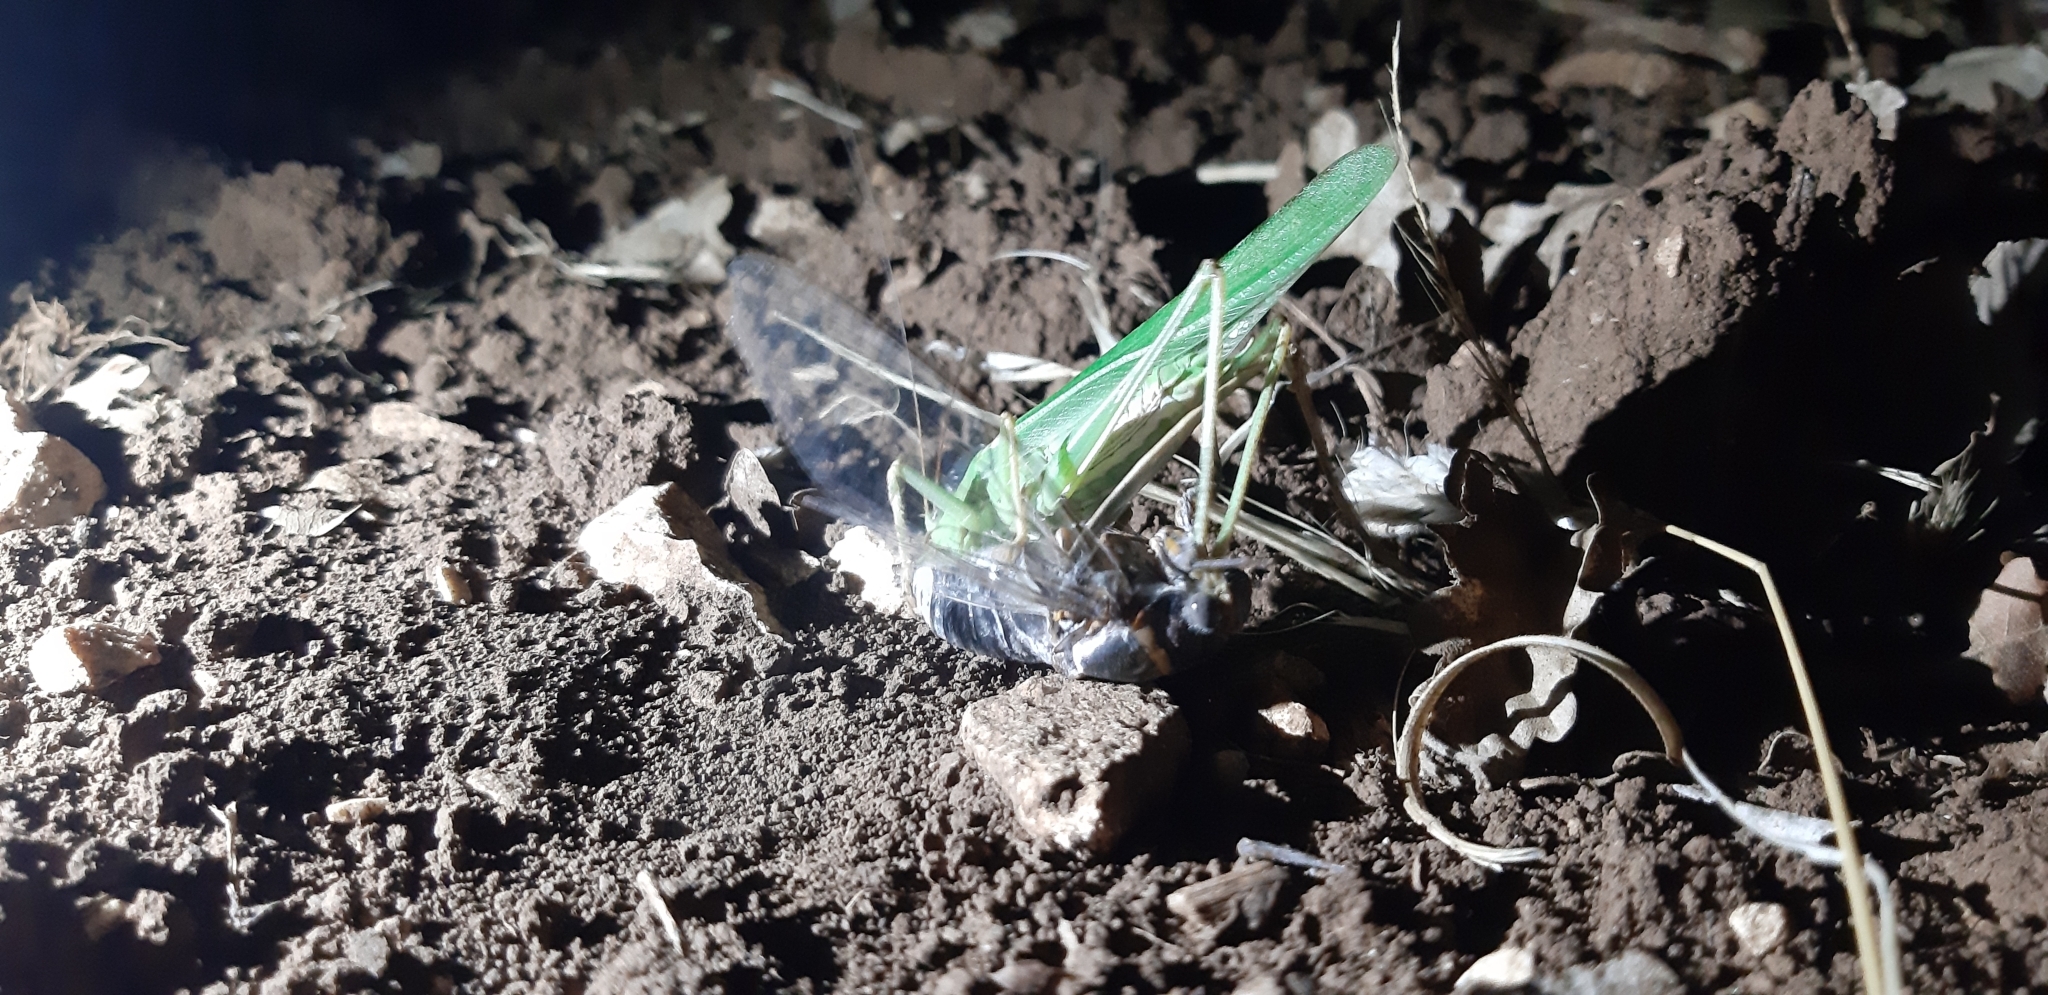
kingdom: Animalia
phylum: Arthropoda
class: Insecta
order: Orthoptera
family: Tettigoniidae
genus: Tettigonia
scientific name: Tettigonia viridissima
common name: Great green bush-cricket
